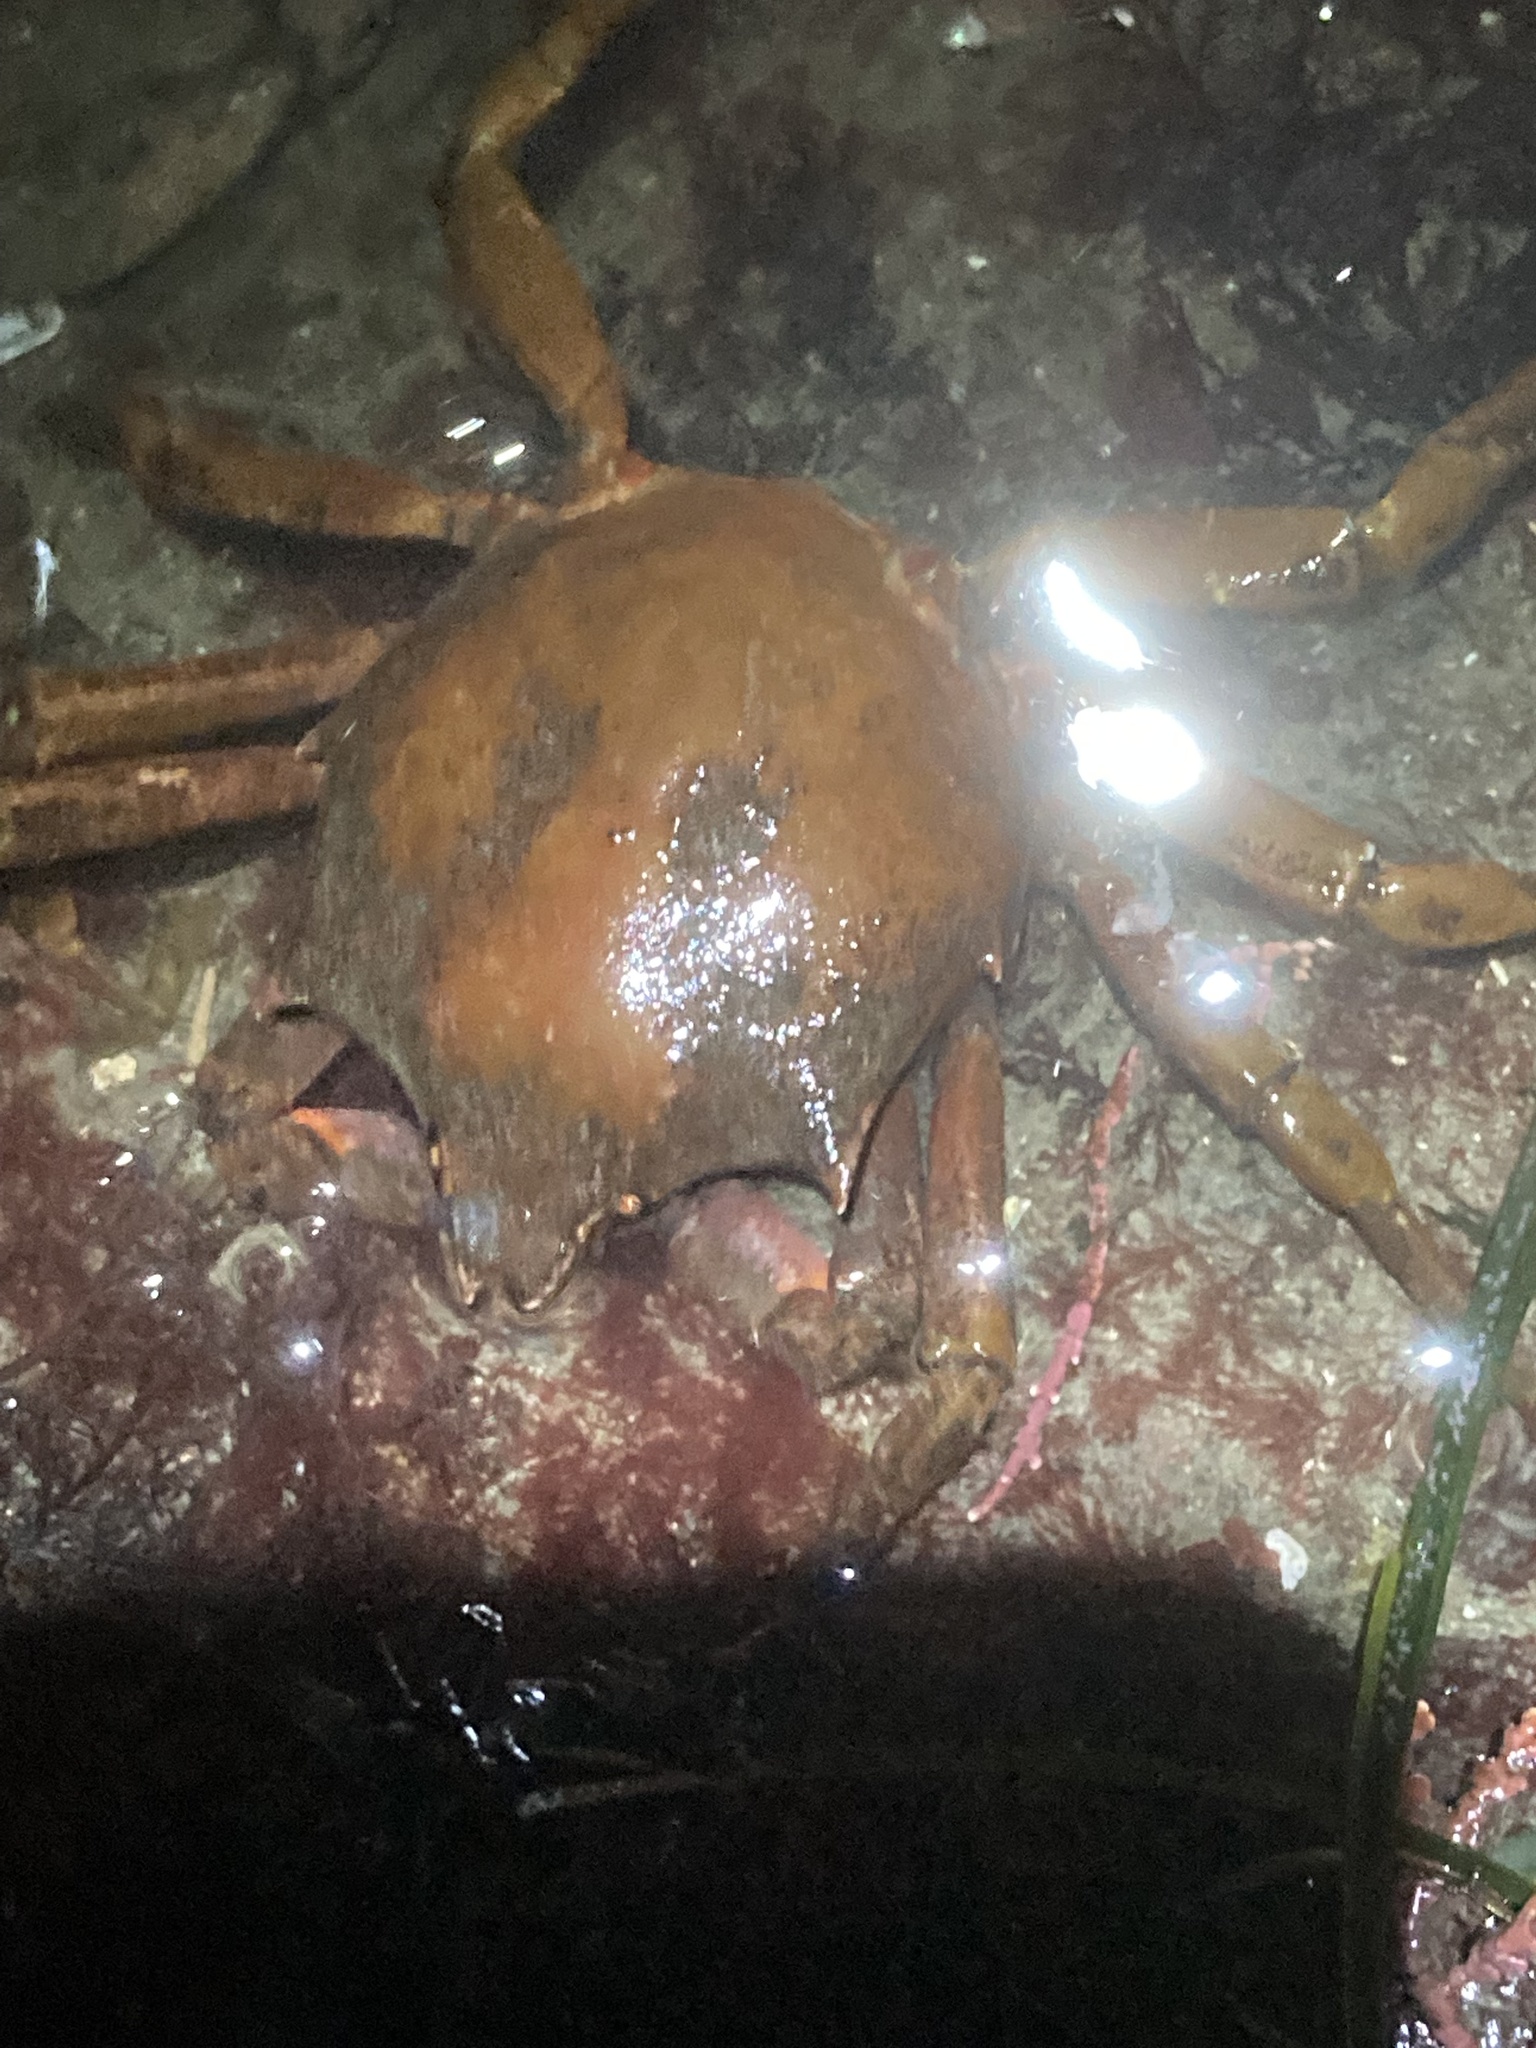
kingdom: Animalia
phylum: Arthropoda
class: Malacostraca
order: Decapoda
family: Epialtidae
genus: Pugettia
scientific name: Pugettia producta
